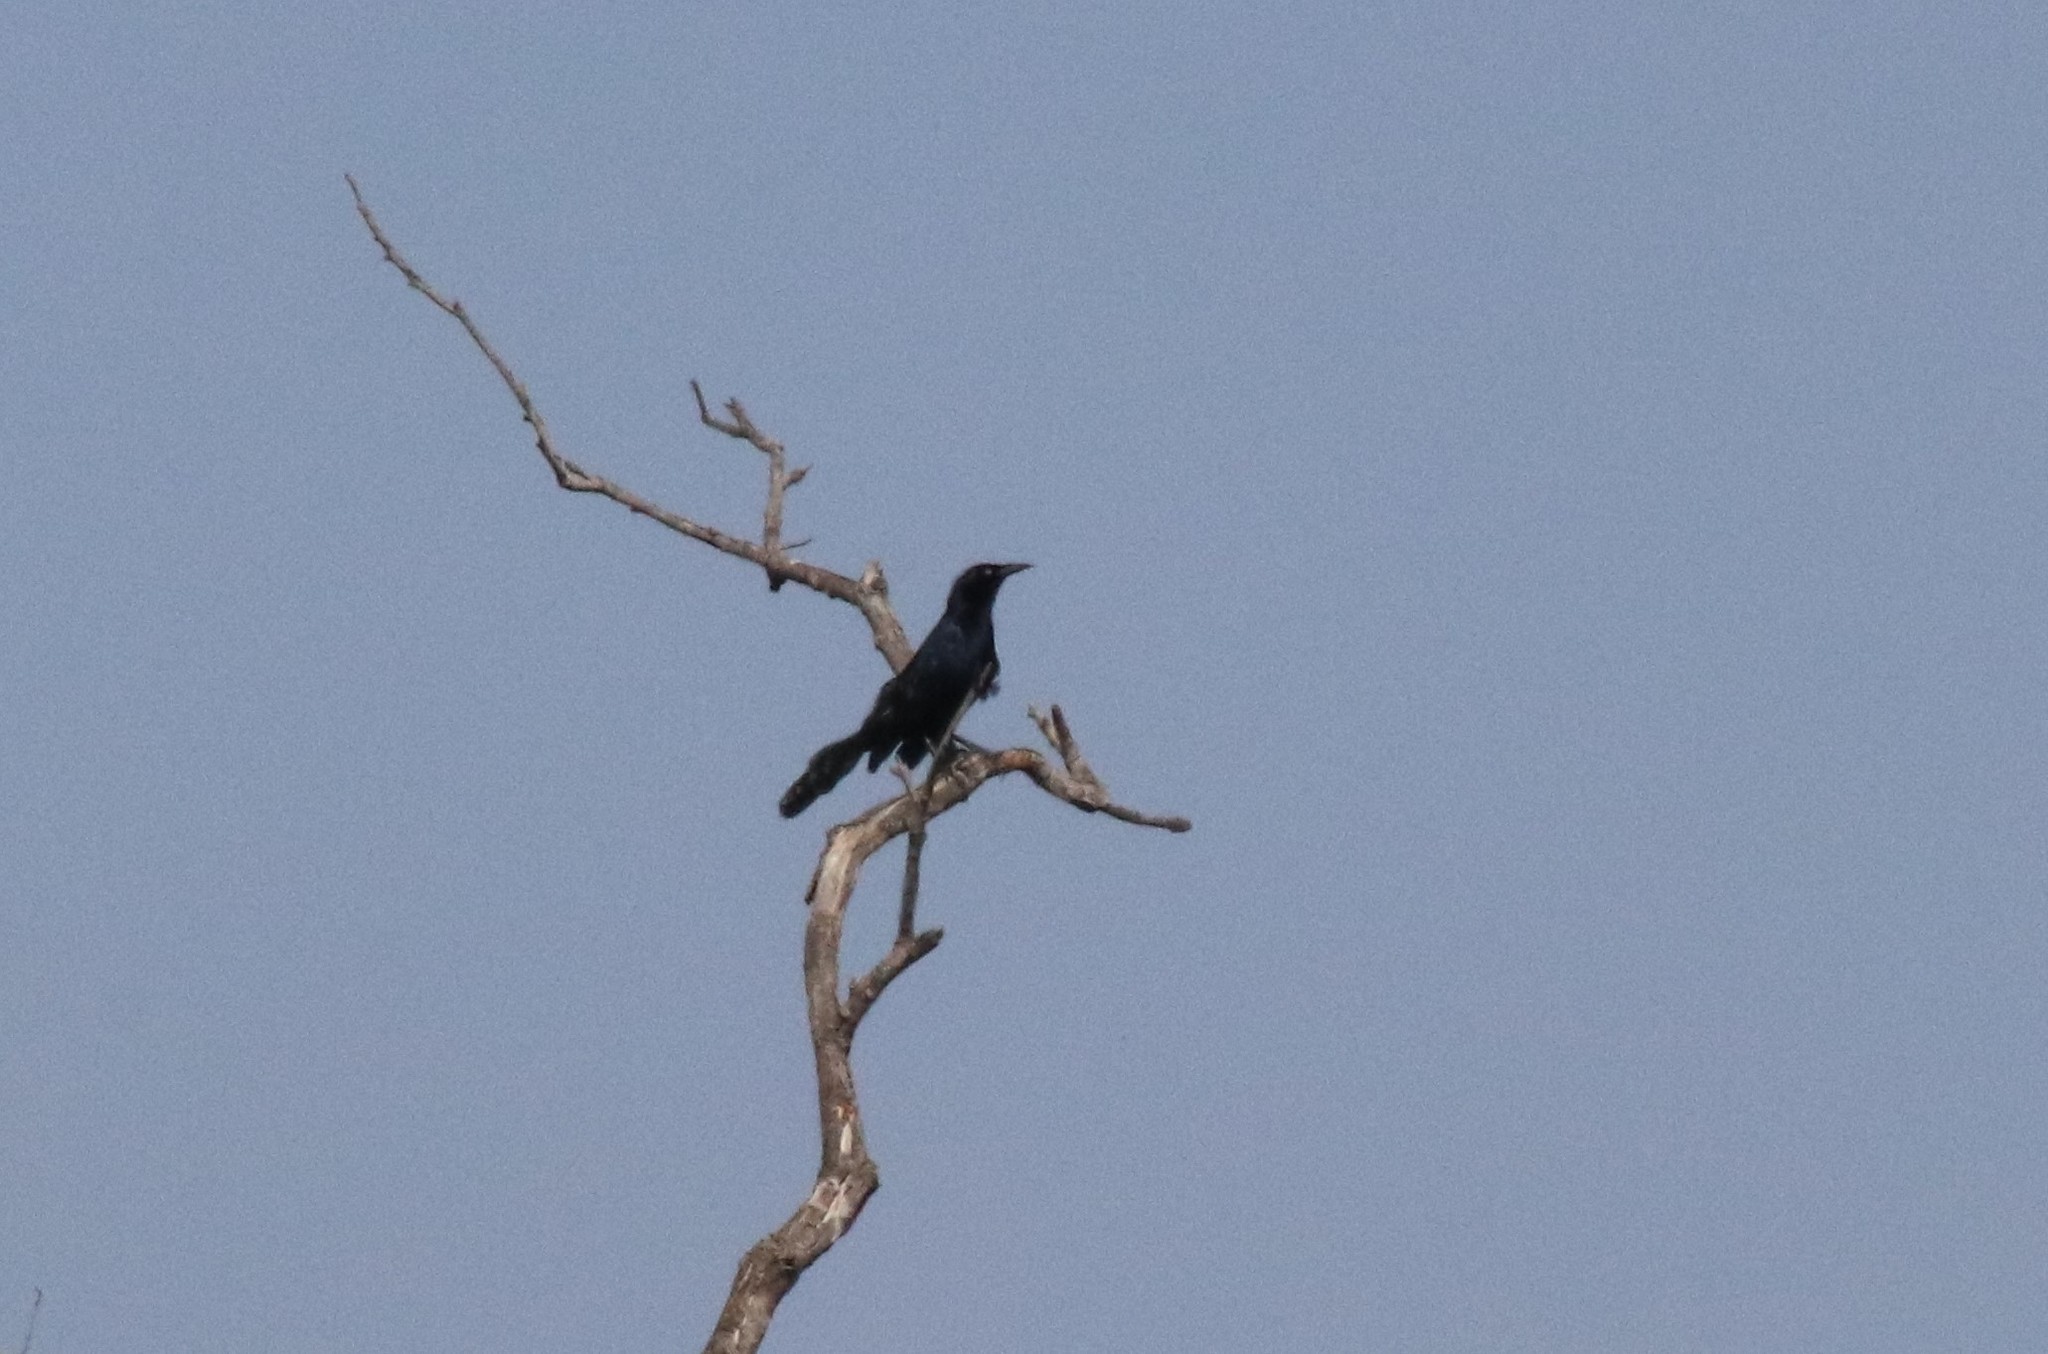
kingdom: Animalia
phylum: Chordata
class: Aves
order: Passeriformes
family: Icteridae
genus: Quiscalus
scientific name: Quiscalus mexicanus
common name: Great-tailed grackle
